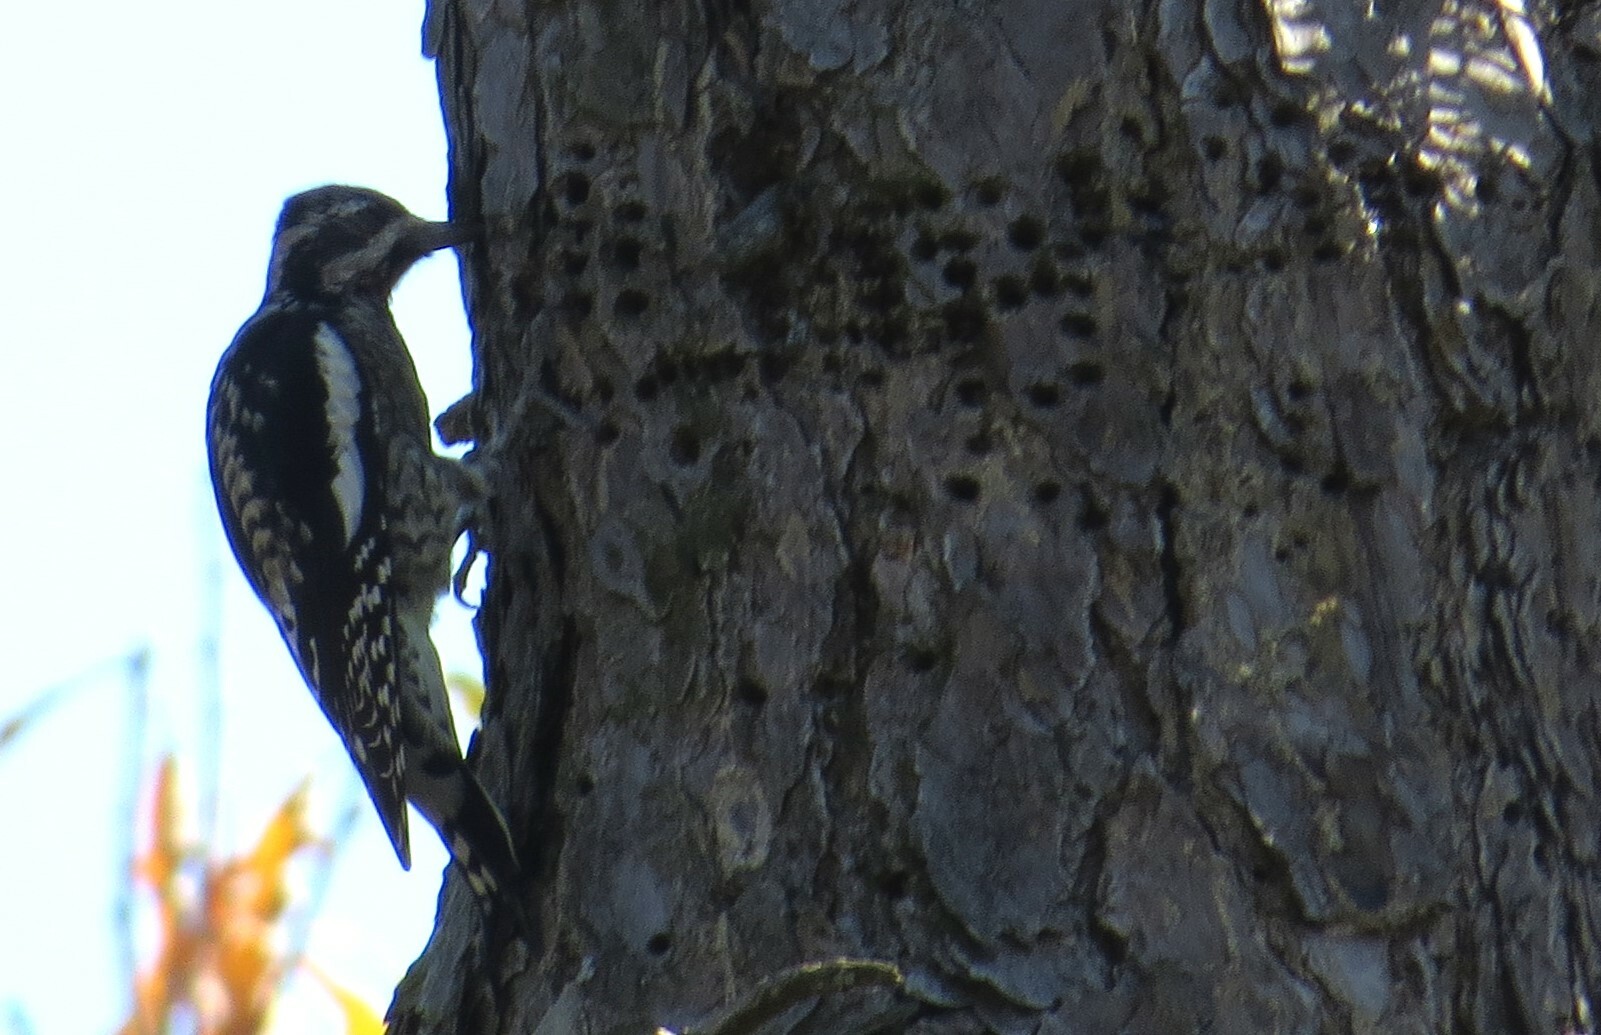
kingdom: Animalia
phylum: Chordata
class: Aves
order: Piciformes
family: Picidae
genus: Sphyrapicus
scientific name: Sphyrapicus varius
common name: Yellow-bellied sapsucker
